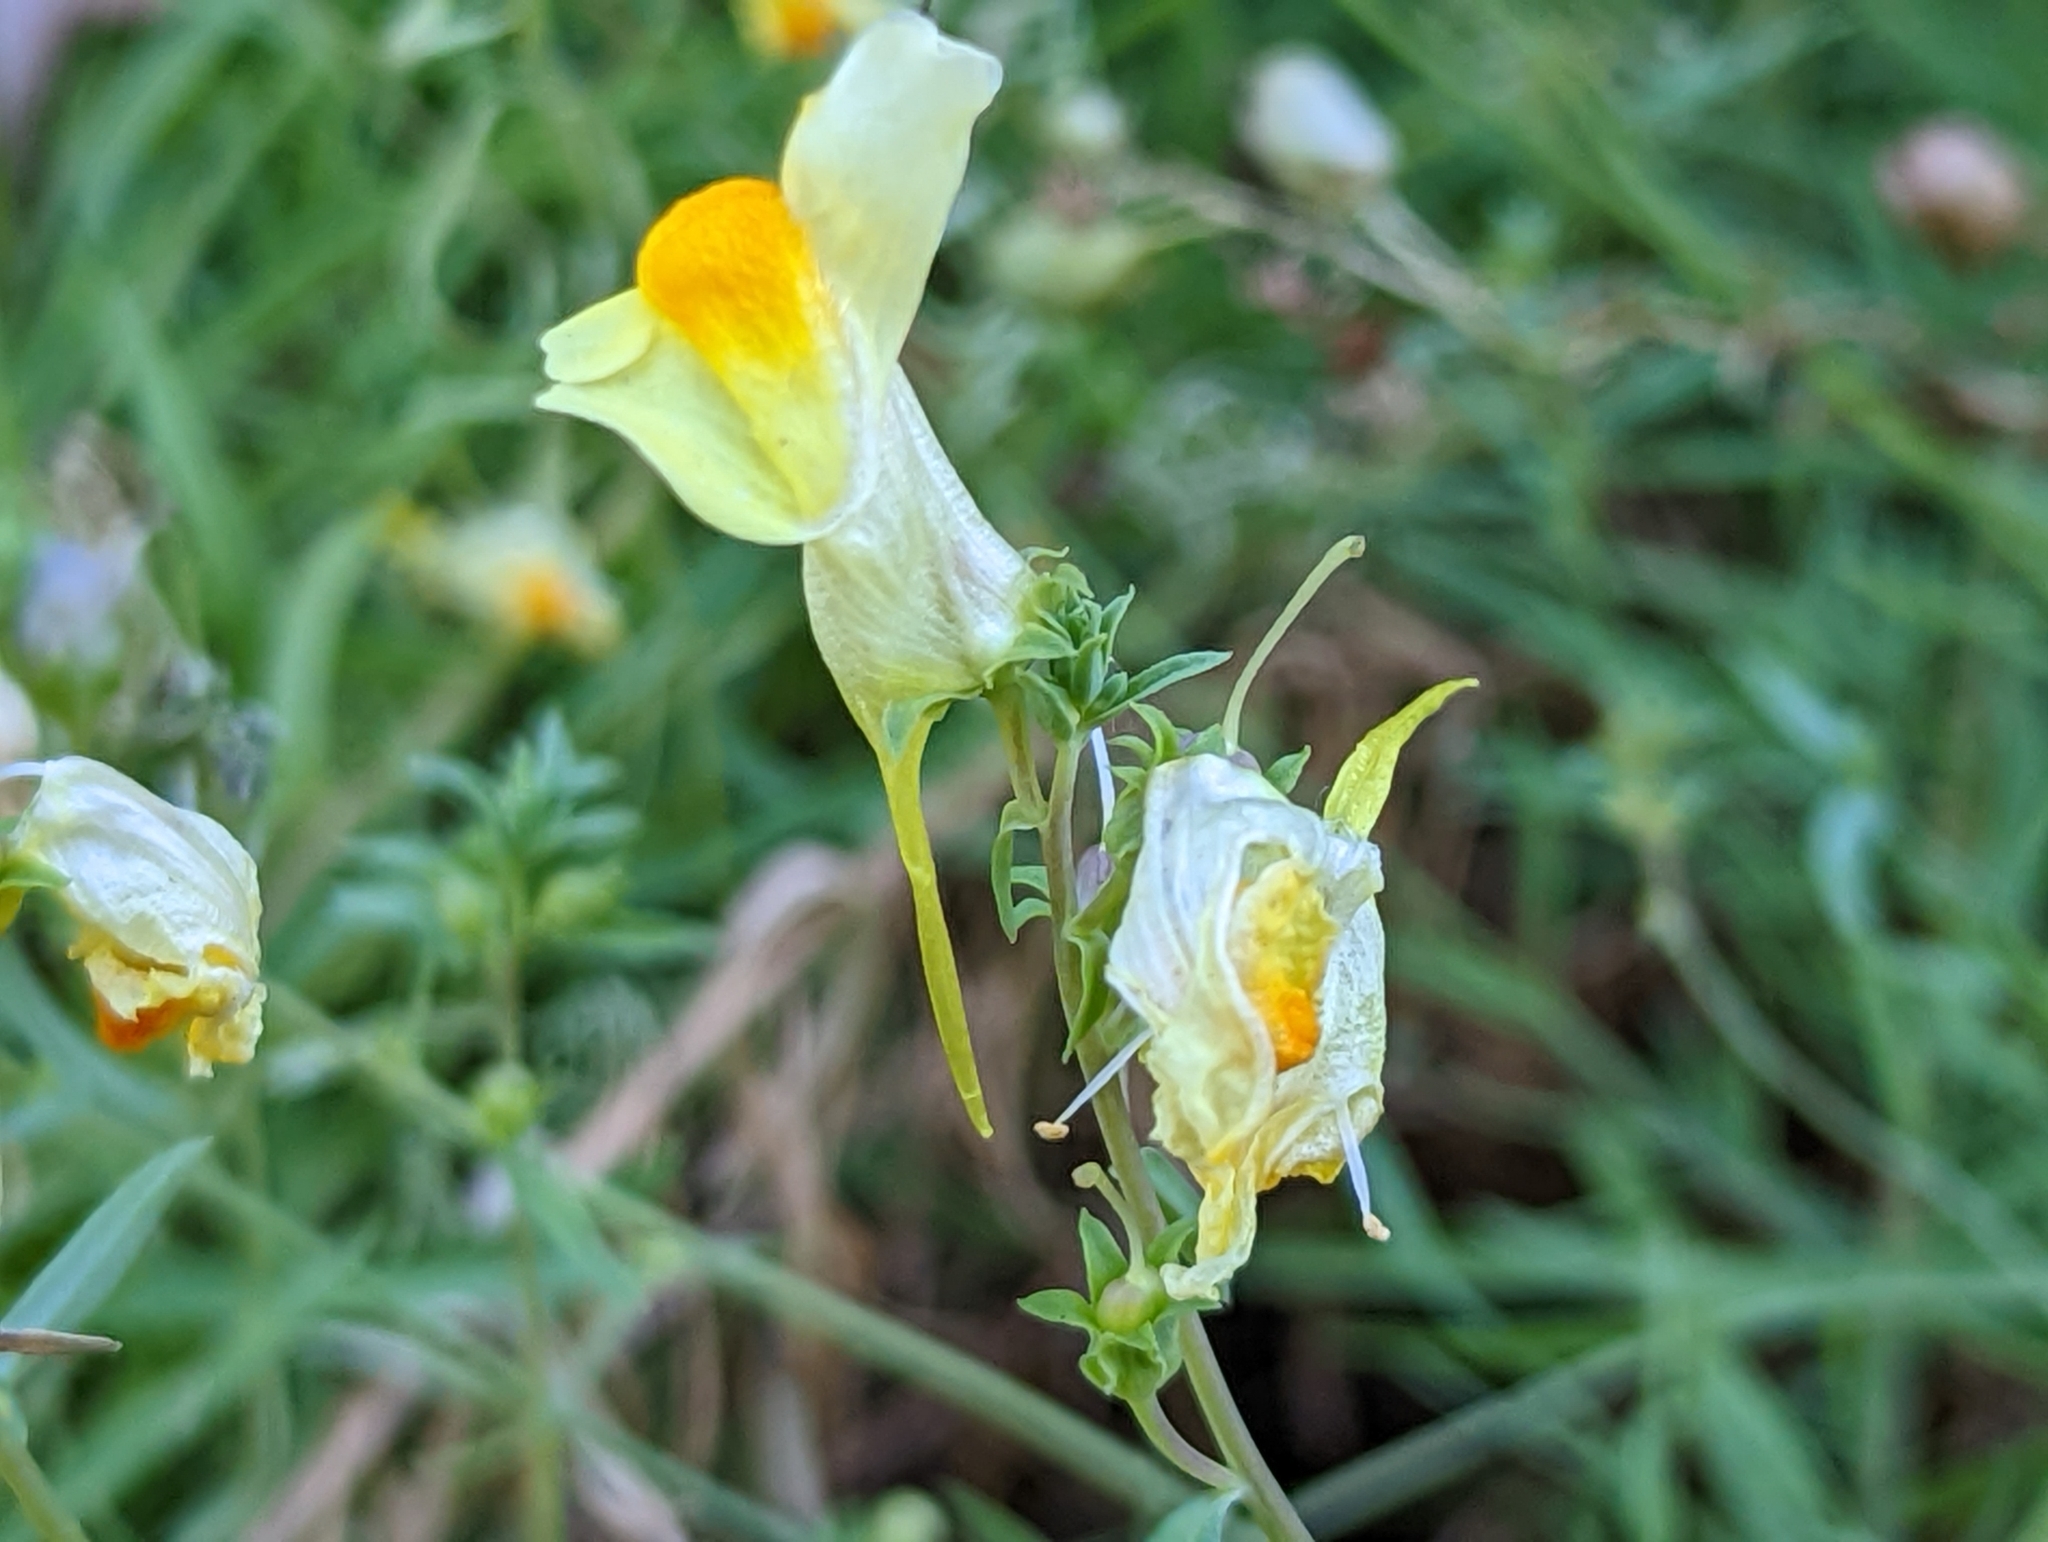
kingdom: Plantae
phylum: Tracheophyta
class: Magnoliopsida
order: Lamiales
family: Plantaginaceae
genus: Linaria
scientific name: Linaria vulgaris
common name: Butter and eggs
